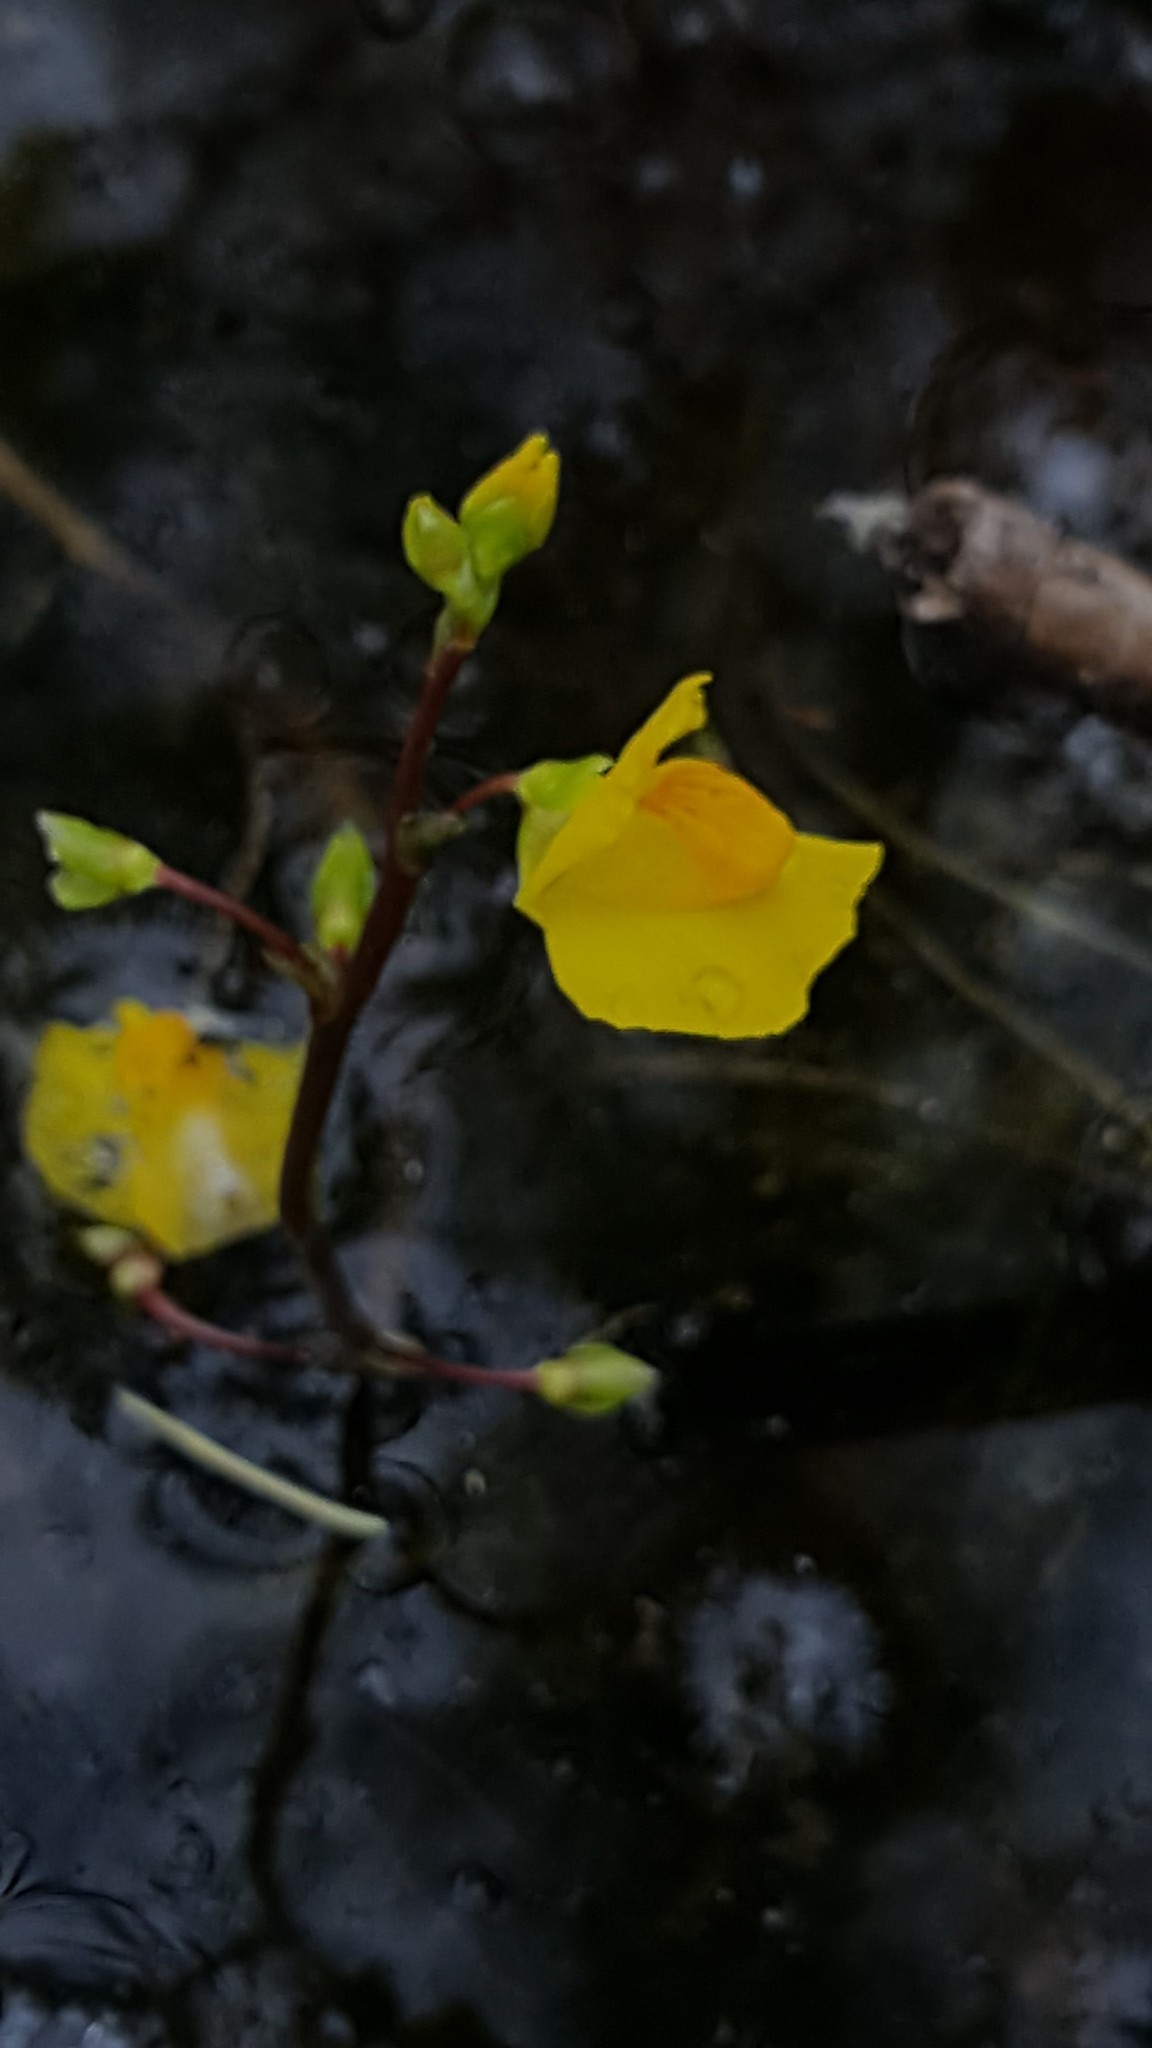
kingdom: Plantae
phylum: Tracheophyta
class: Magnoliopsida
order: Lamiales
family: Lentibulariaceae
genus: Utricularia
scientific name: Utricularia macrorhiza
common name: Common bladderwort
